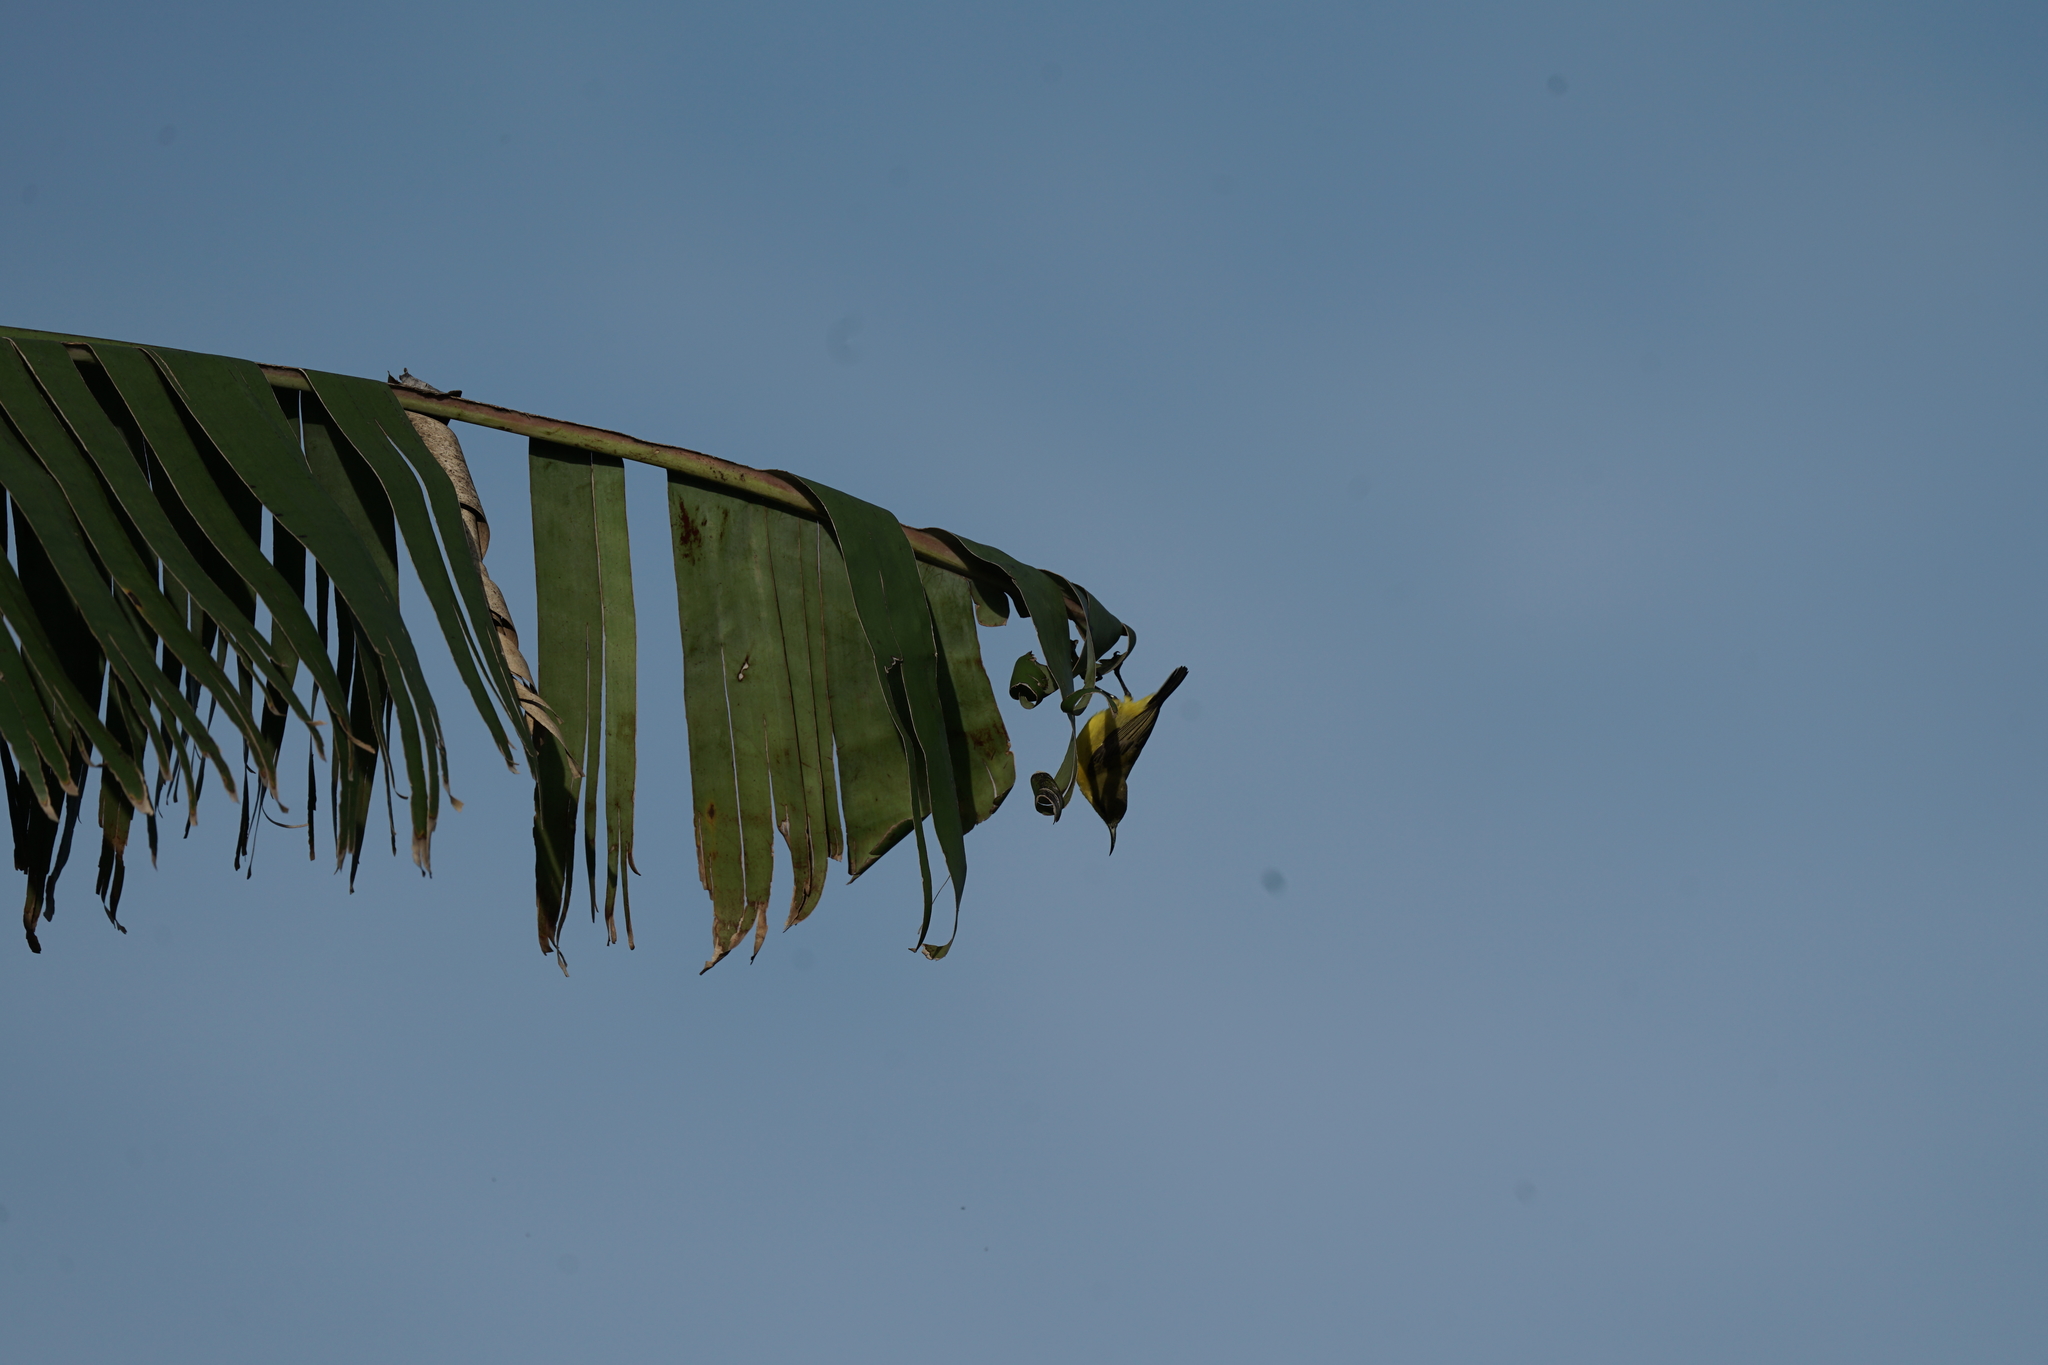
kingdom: Animalia
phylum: Chordata
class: Aves
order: Passeriformes
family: Nectariniidae
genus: Cinnyris
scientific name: Cinnyris
